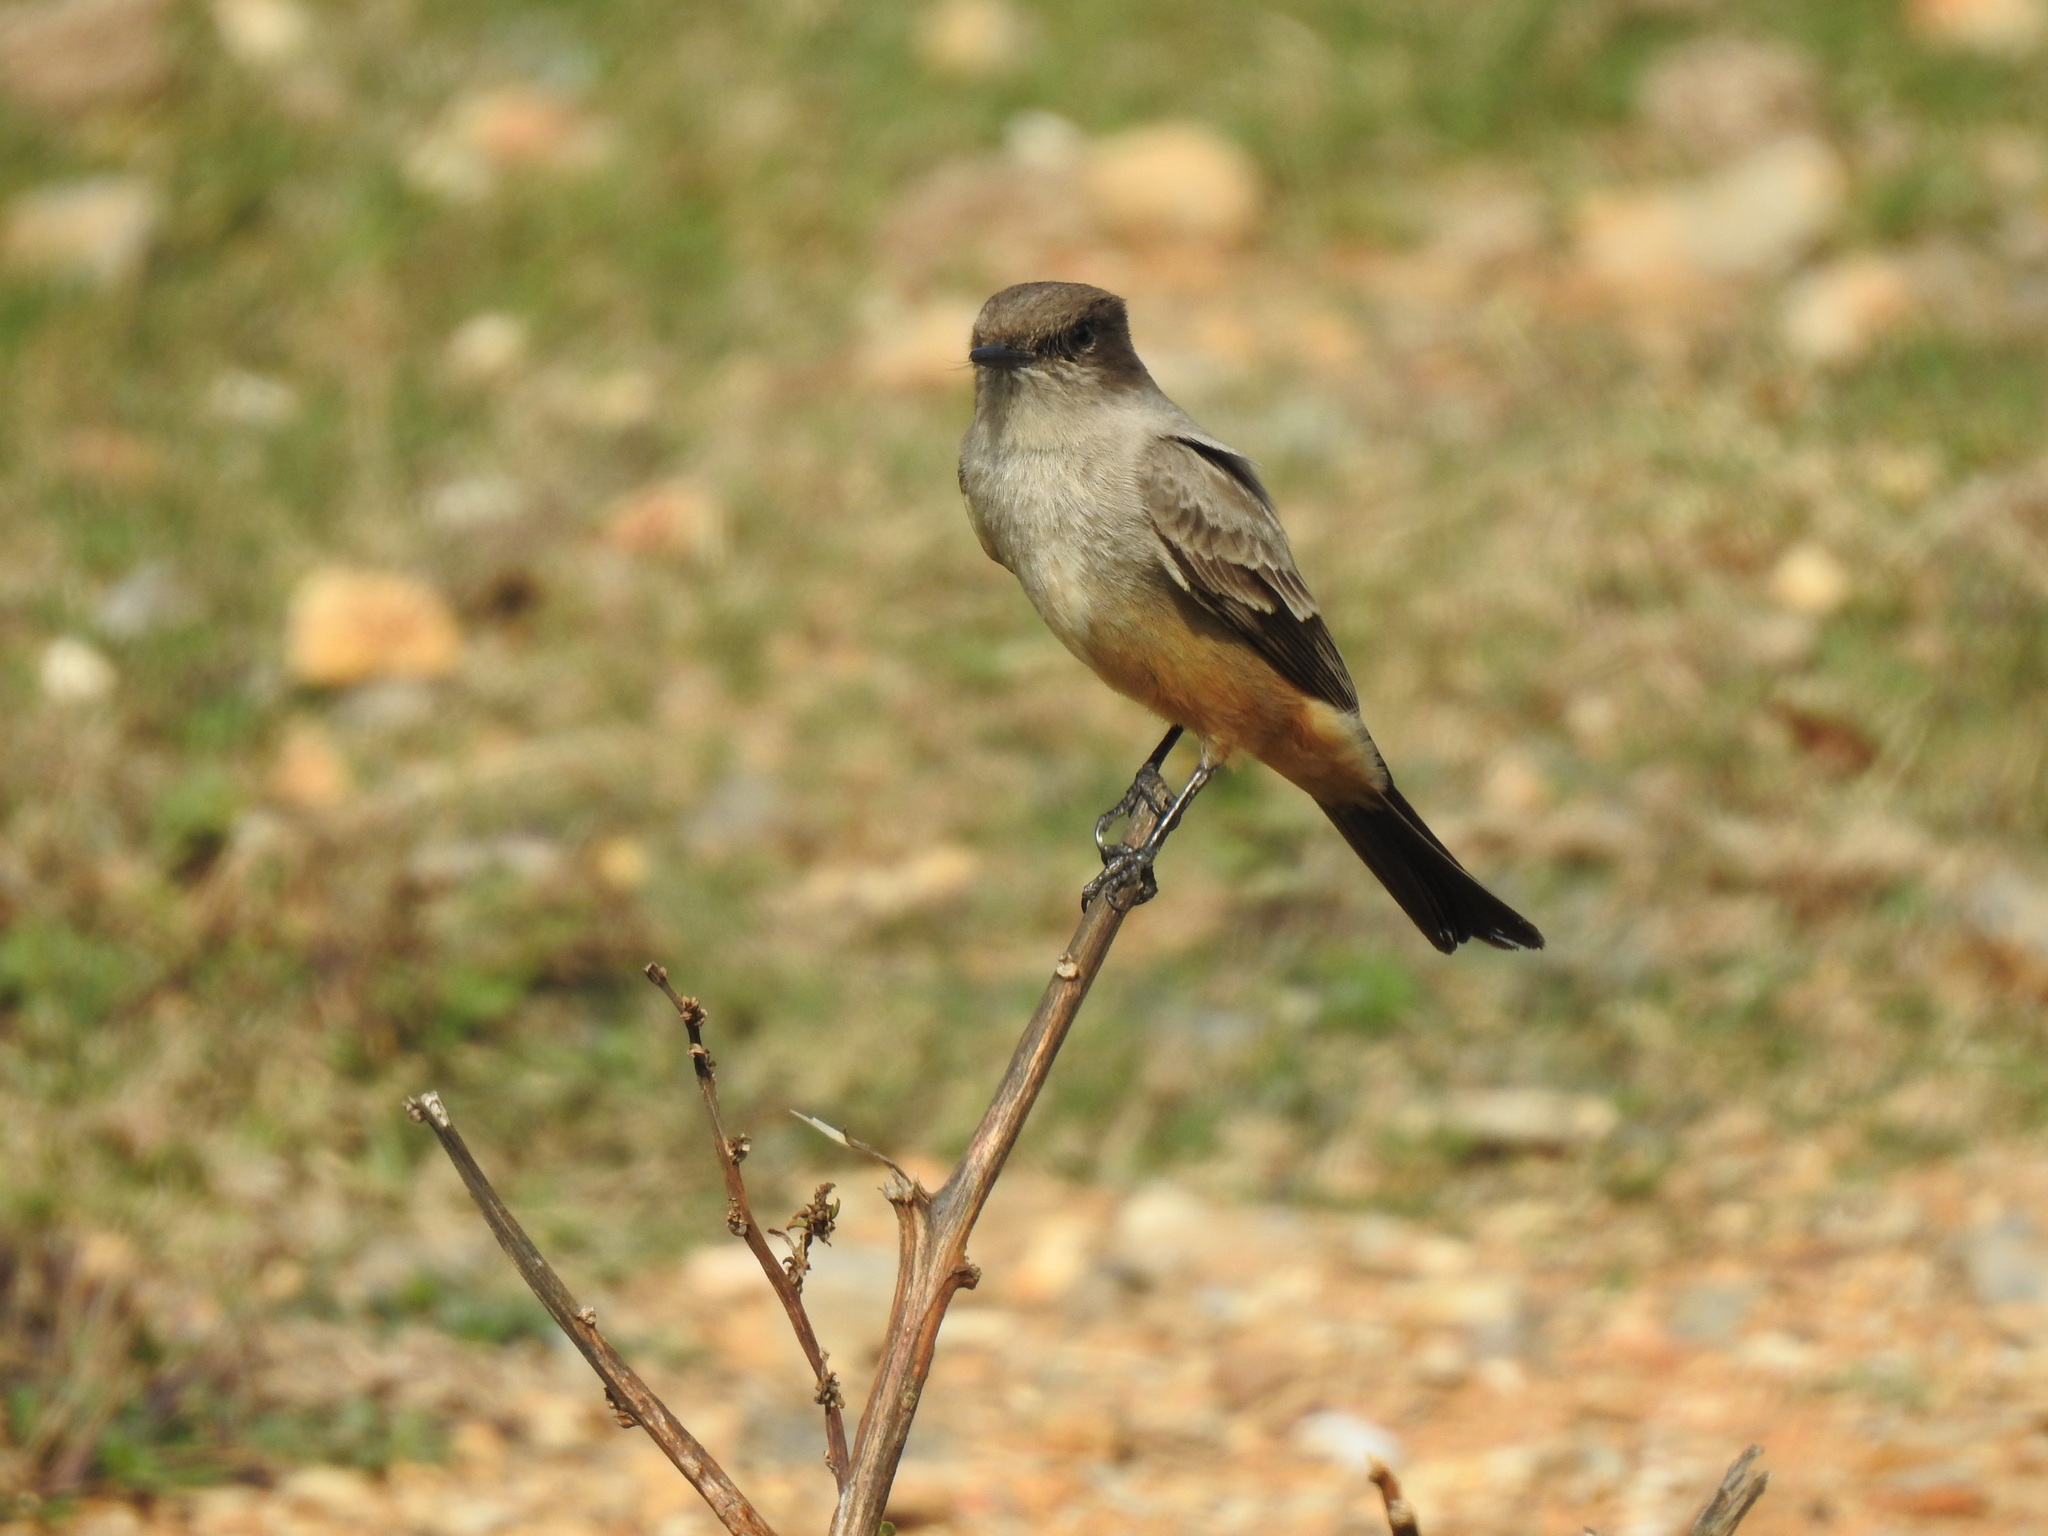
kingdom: Animalia
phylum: Chordata
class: Aves
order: Passeriformes
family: Tyrannidae
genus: Sayornis
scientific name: Sayornis saya
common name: Say's phoebe
